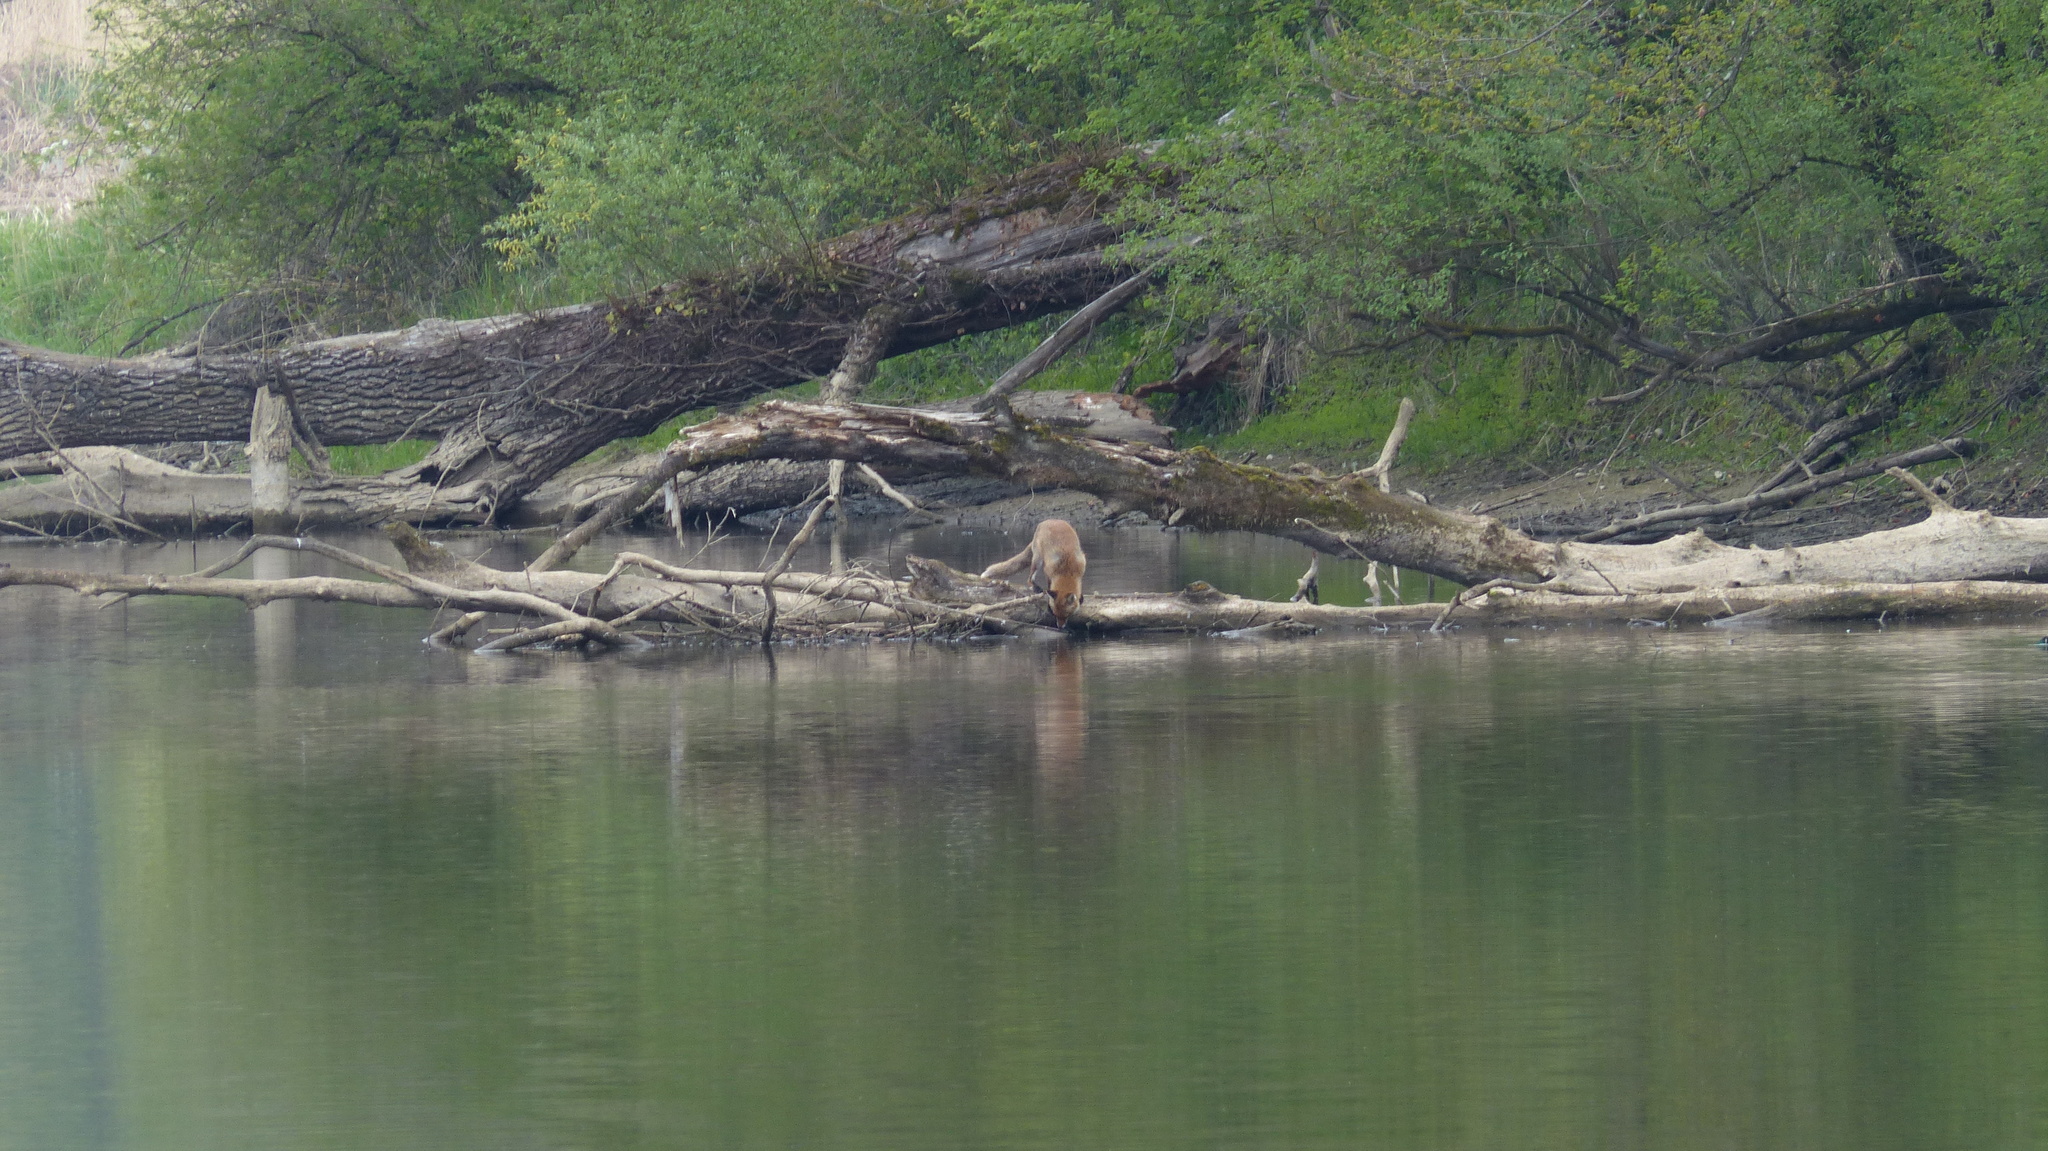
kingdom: Animalia
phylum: Chordata
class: Mammalia
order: Carnivora
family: Canidae
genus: Vulpes
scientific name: Vulpes vulpes
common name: Red fox
